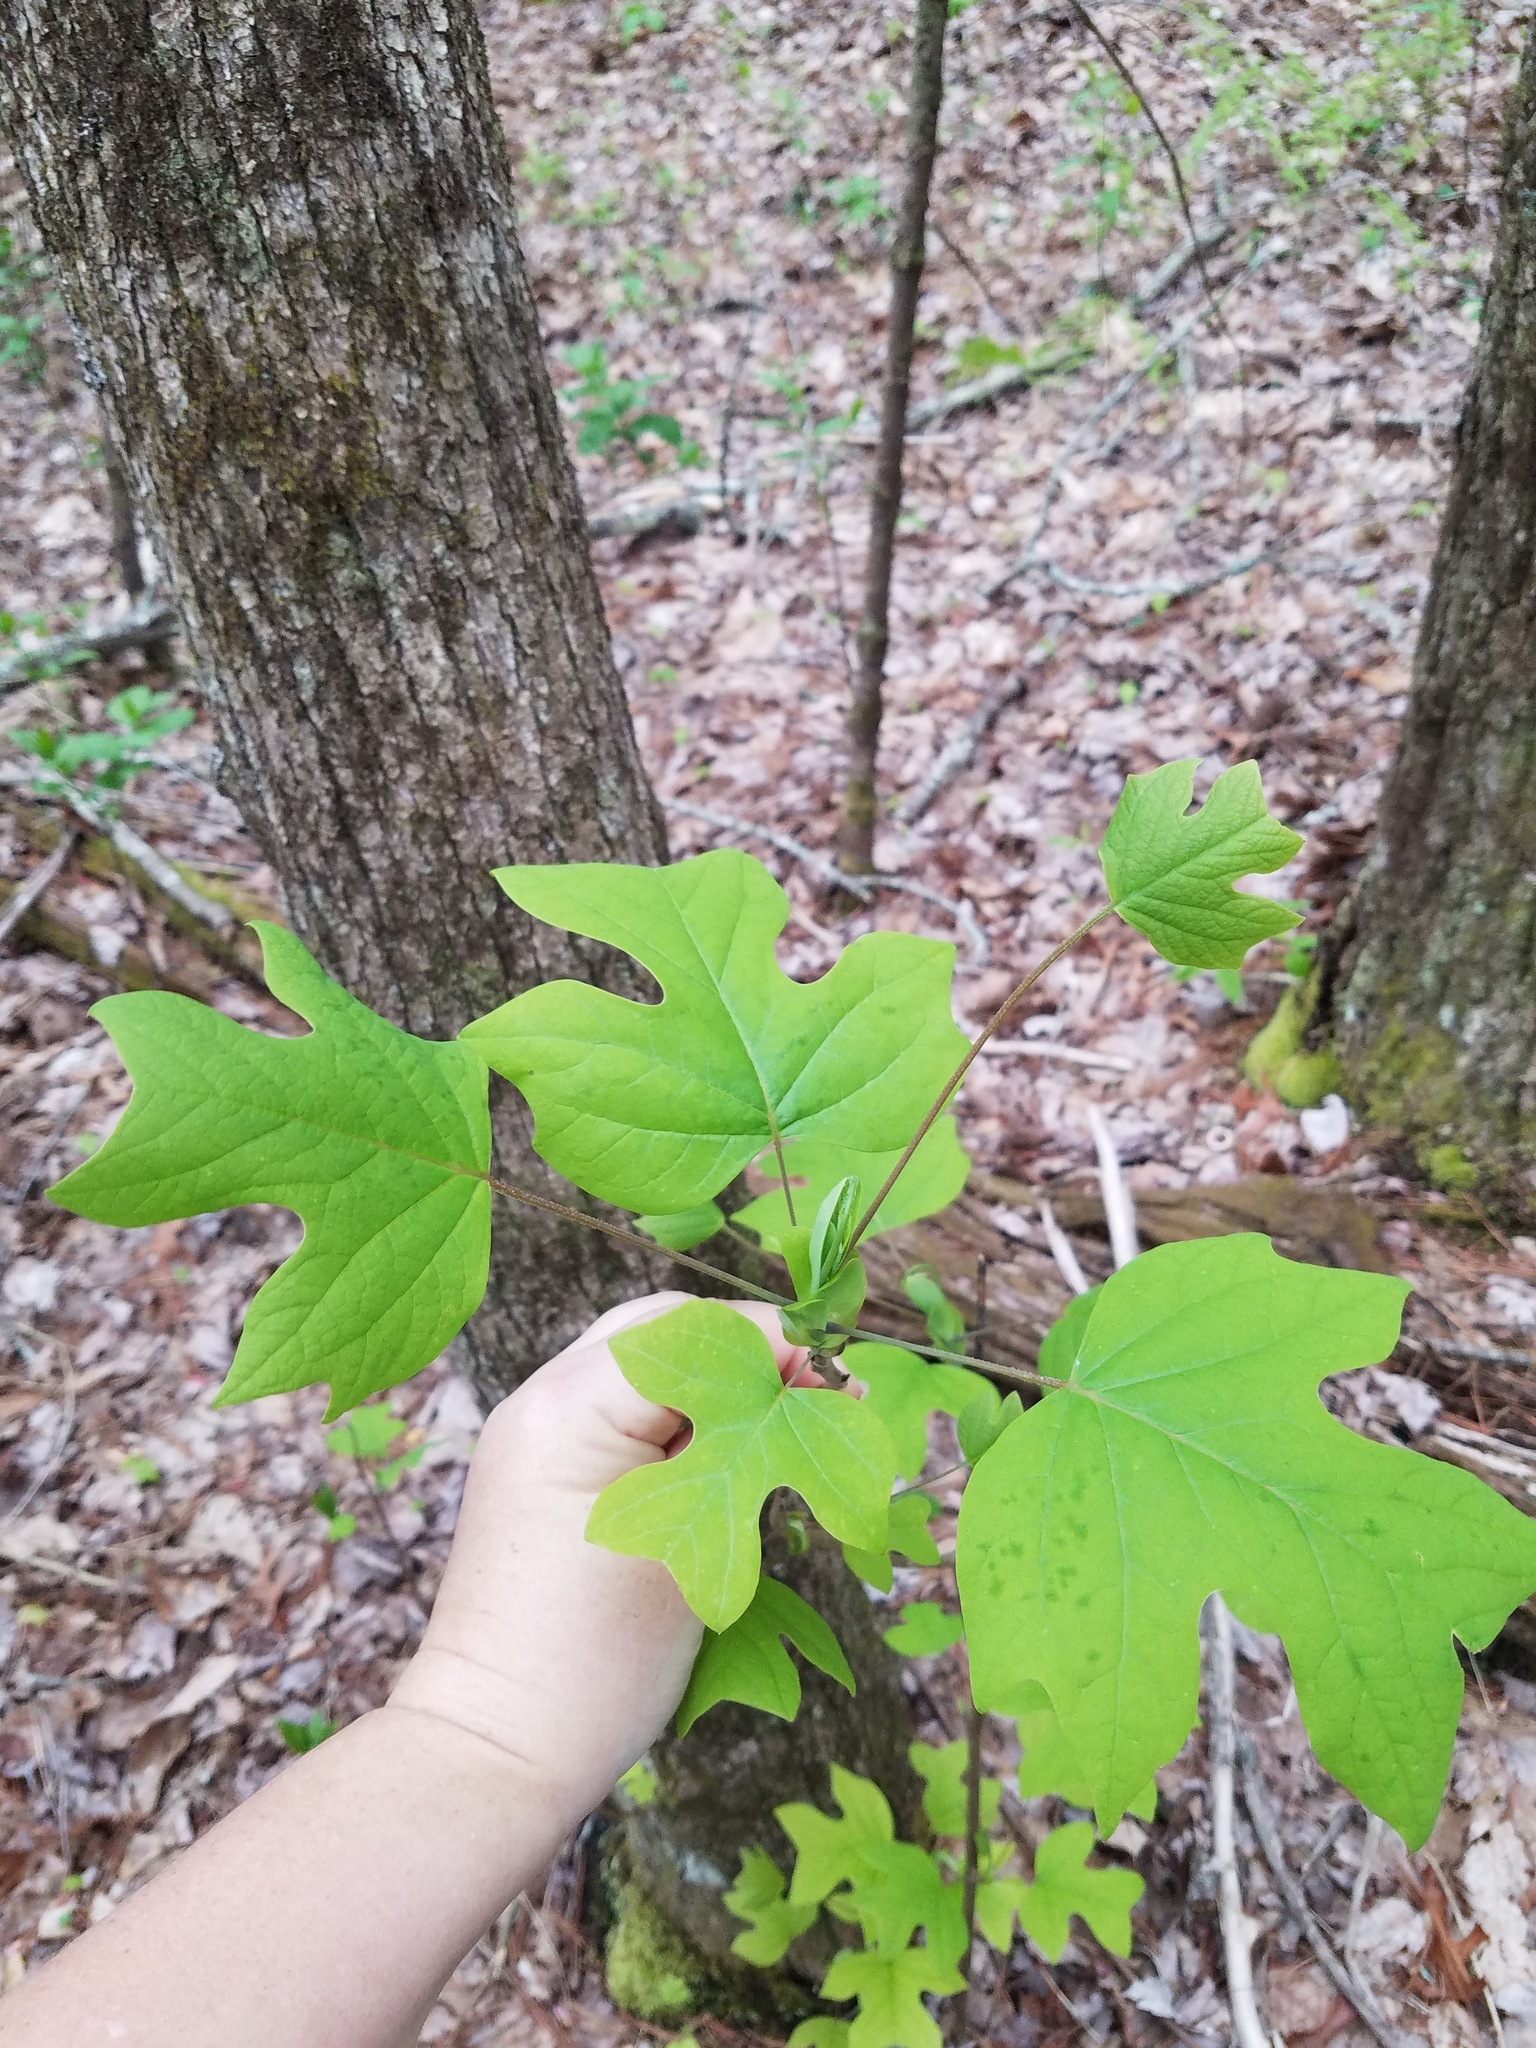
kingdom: Plantae
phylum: Tracheophyta
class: Magnoliopsida
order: Magnoliales
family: Magnoliaceae
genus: Liriodendron
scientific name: Liriodendron tulipifera
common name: Tulip tree
